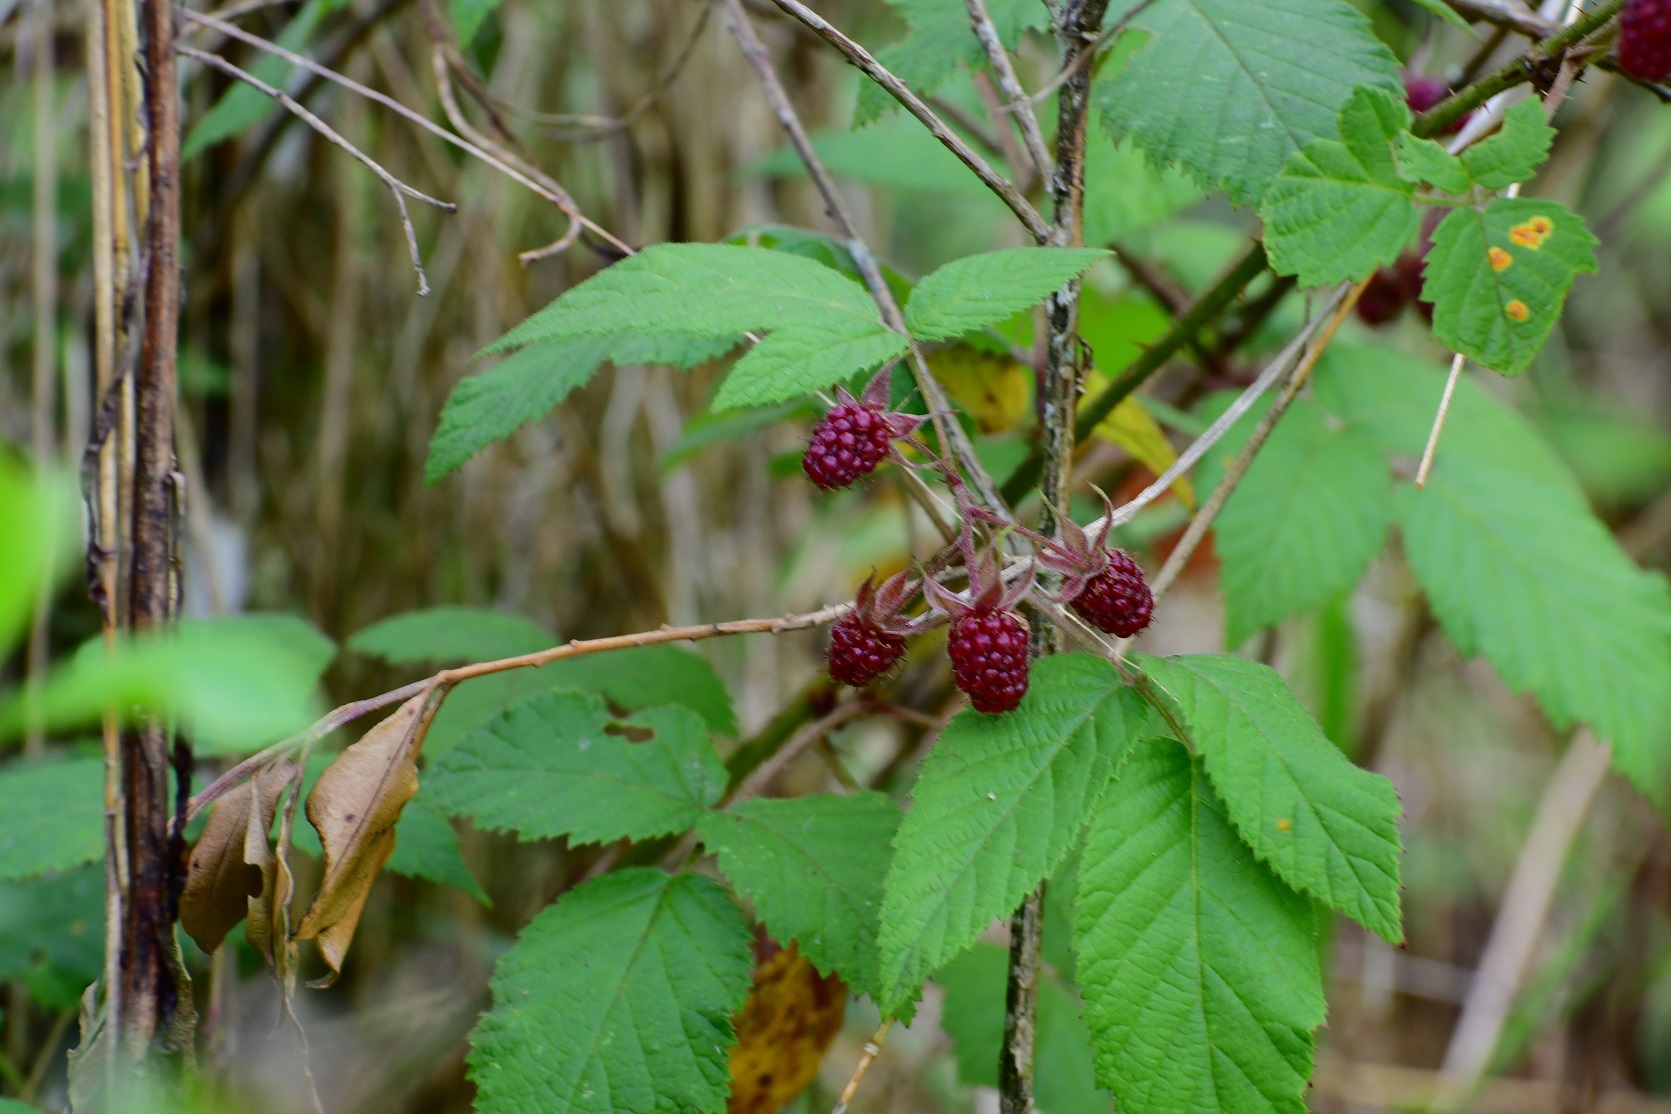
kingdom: Plantae
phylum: Tracheophyta
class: Magnoliopsida
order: Rosales
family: Rosaceae
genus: Rubus
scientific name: Rubus coriifolius
